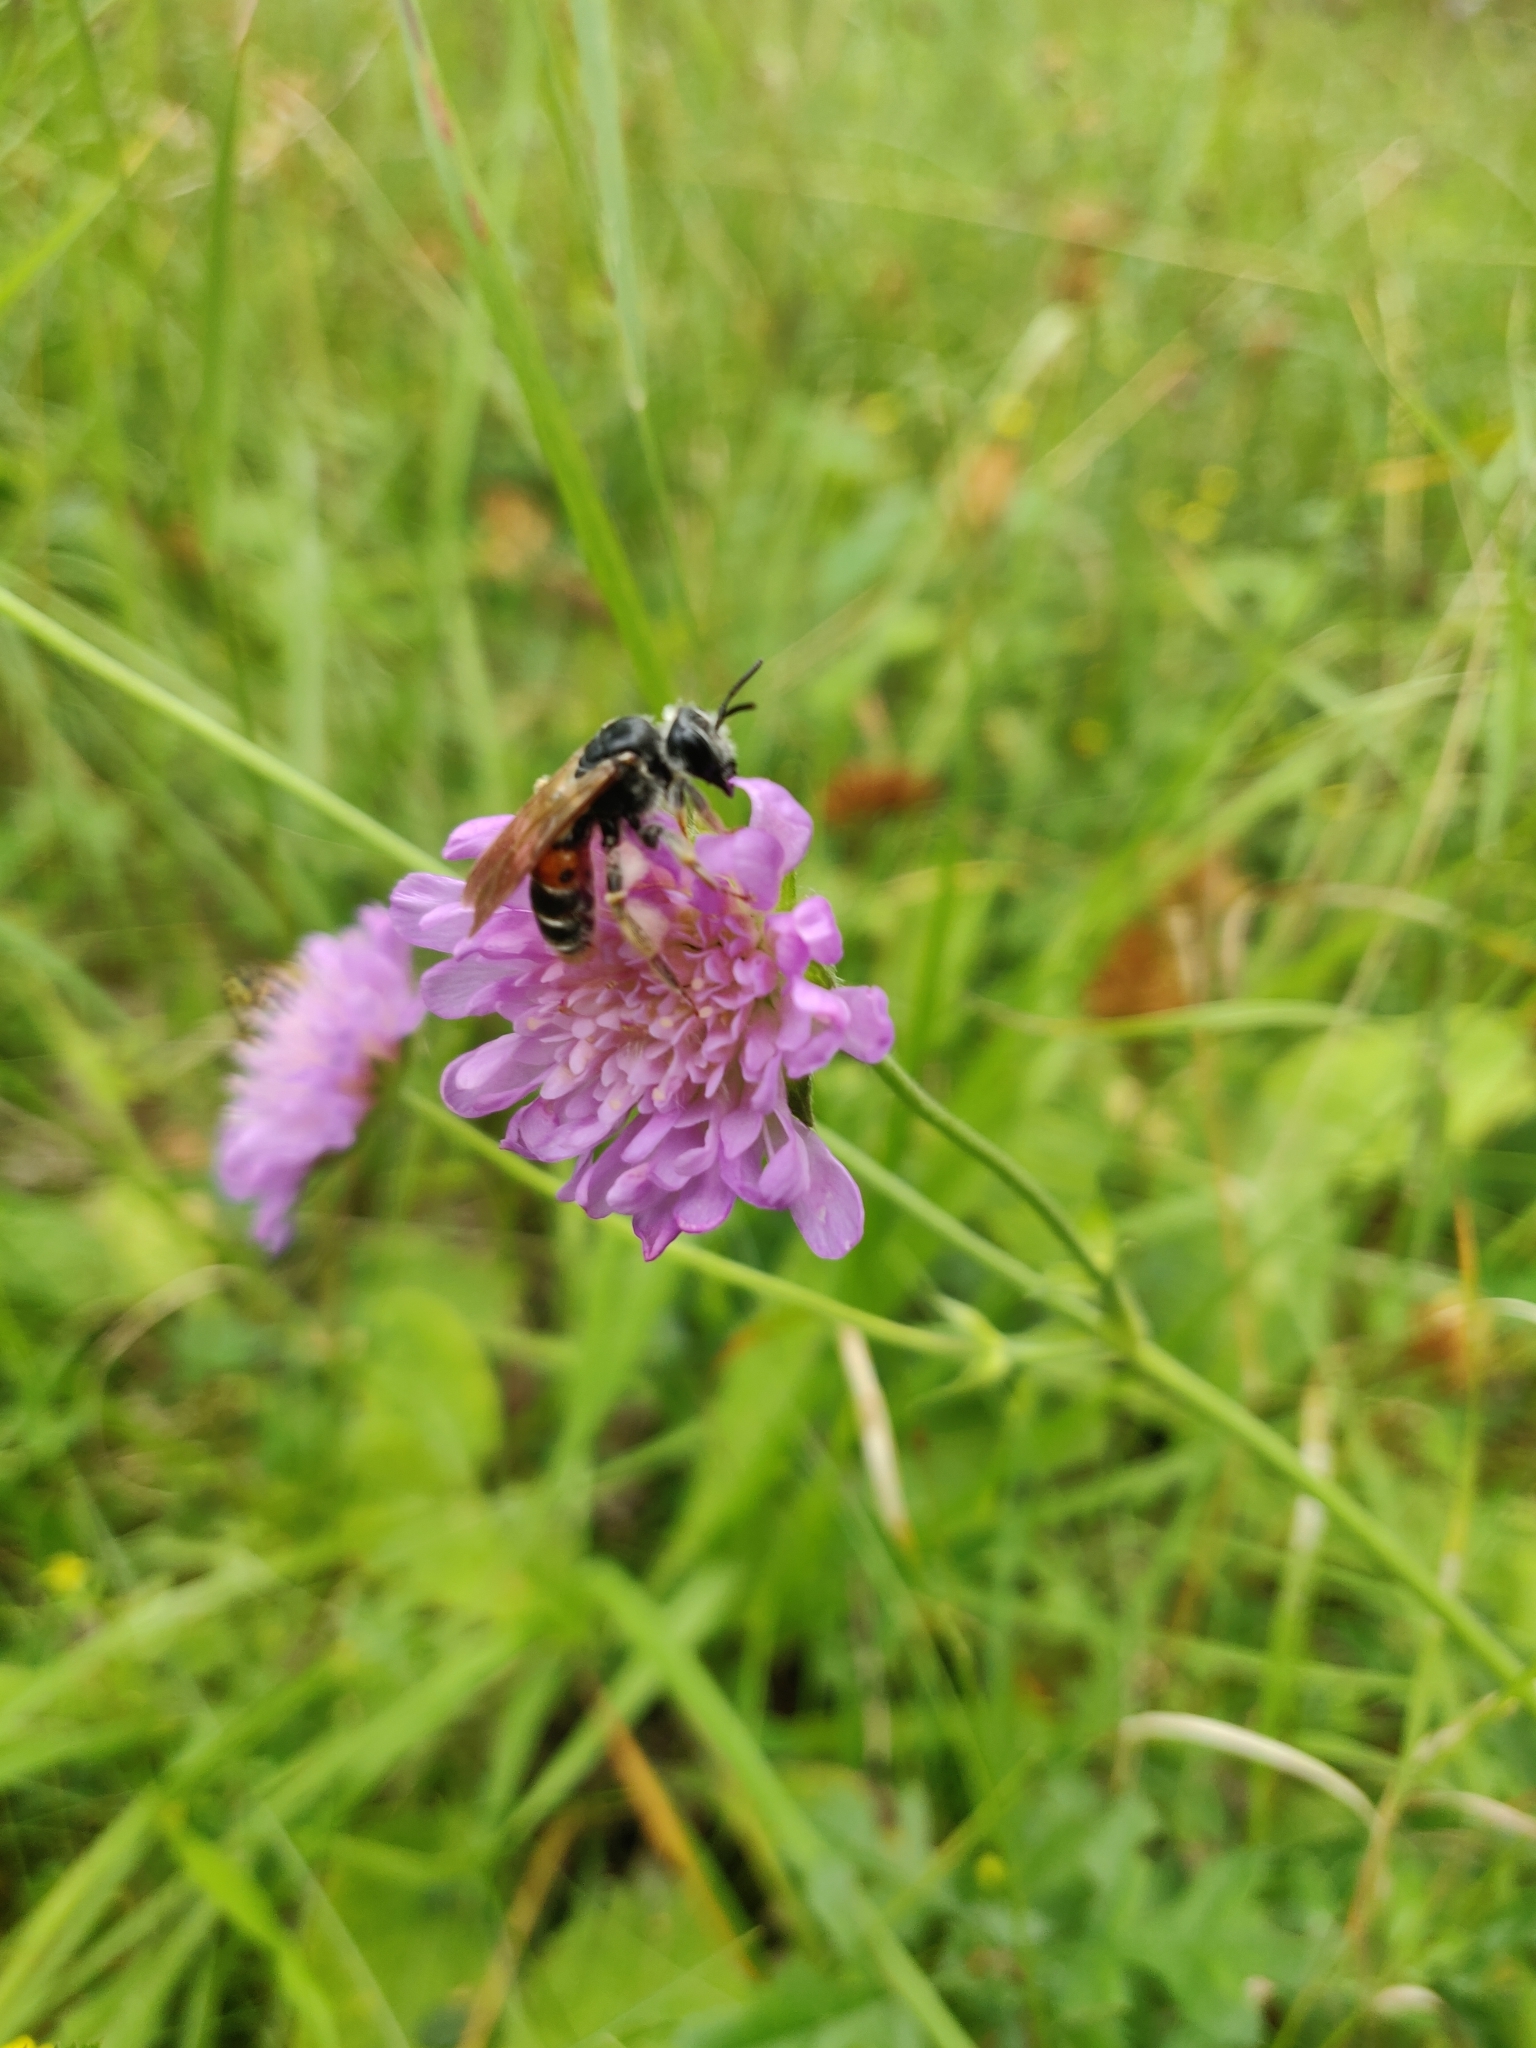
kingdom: Animalia
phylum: Arthropoda
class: Insecta
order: Hymenoptera
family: Andrenidae
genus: Andrena
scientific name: Andrena hattorfiana
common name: Large scabious mining bee
